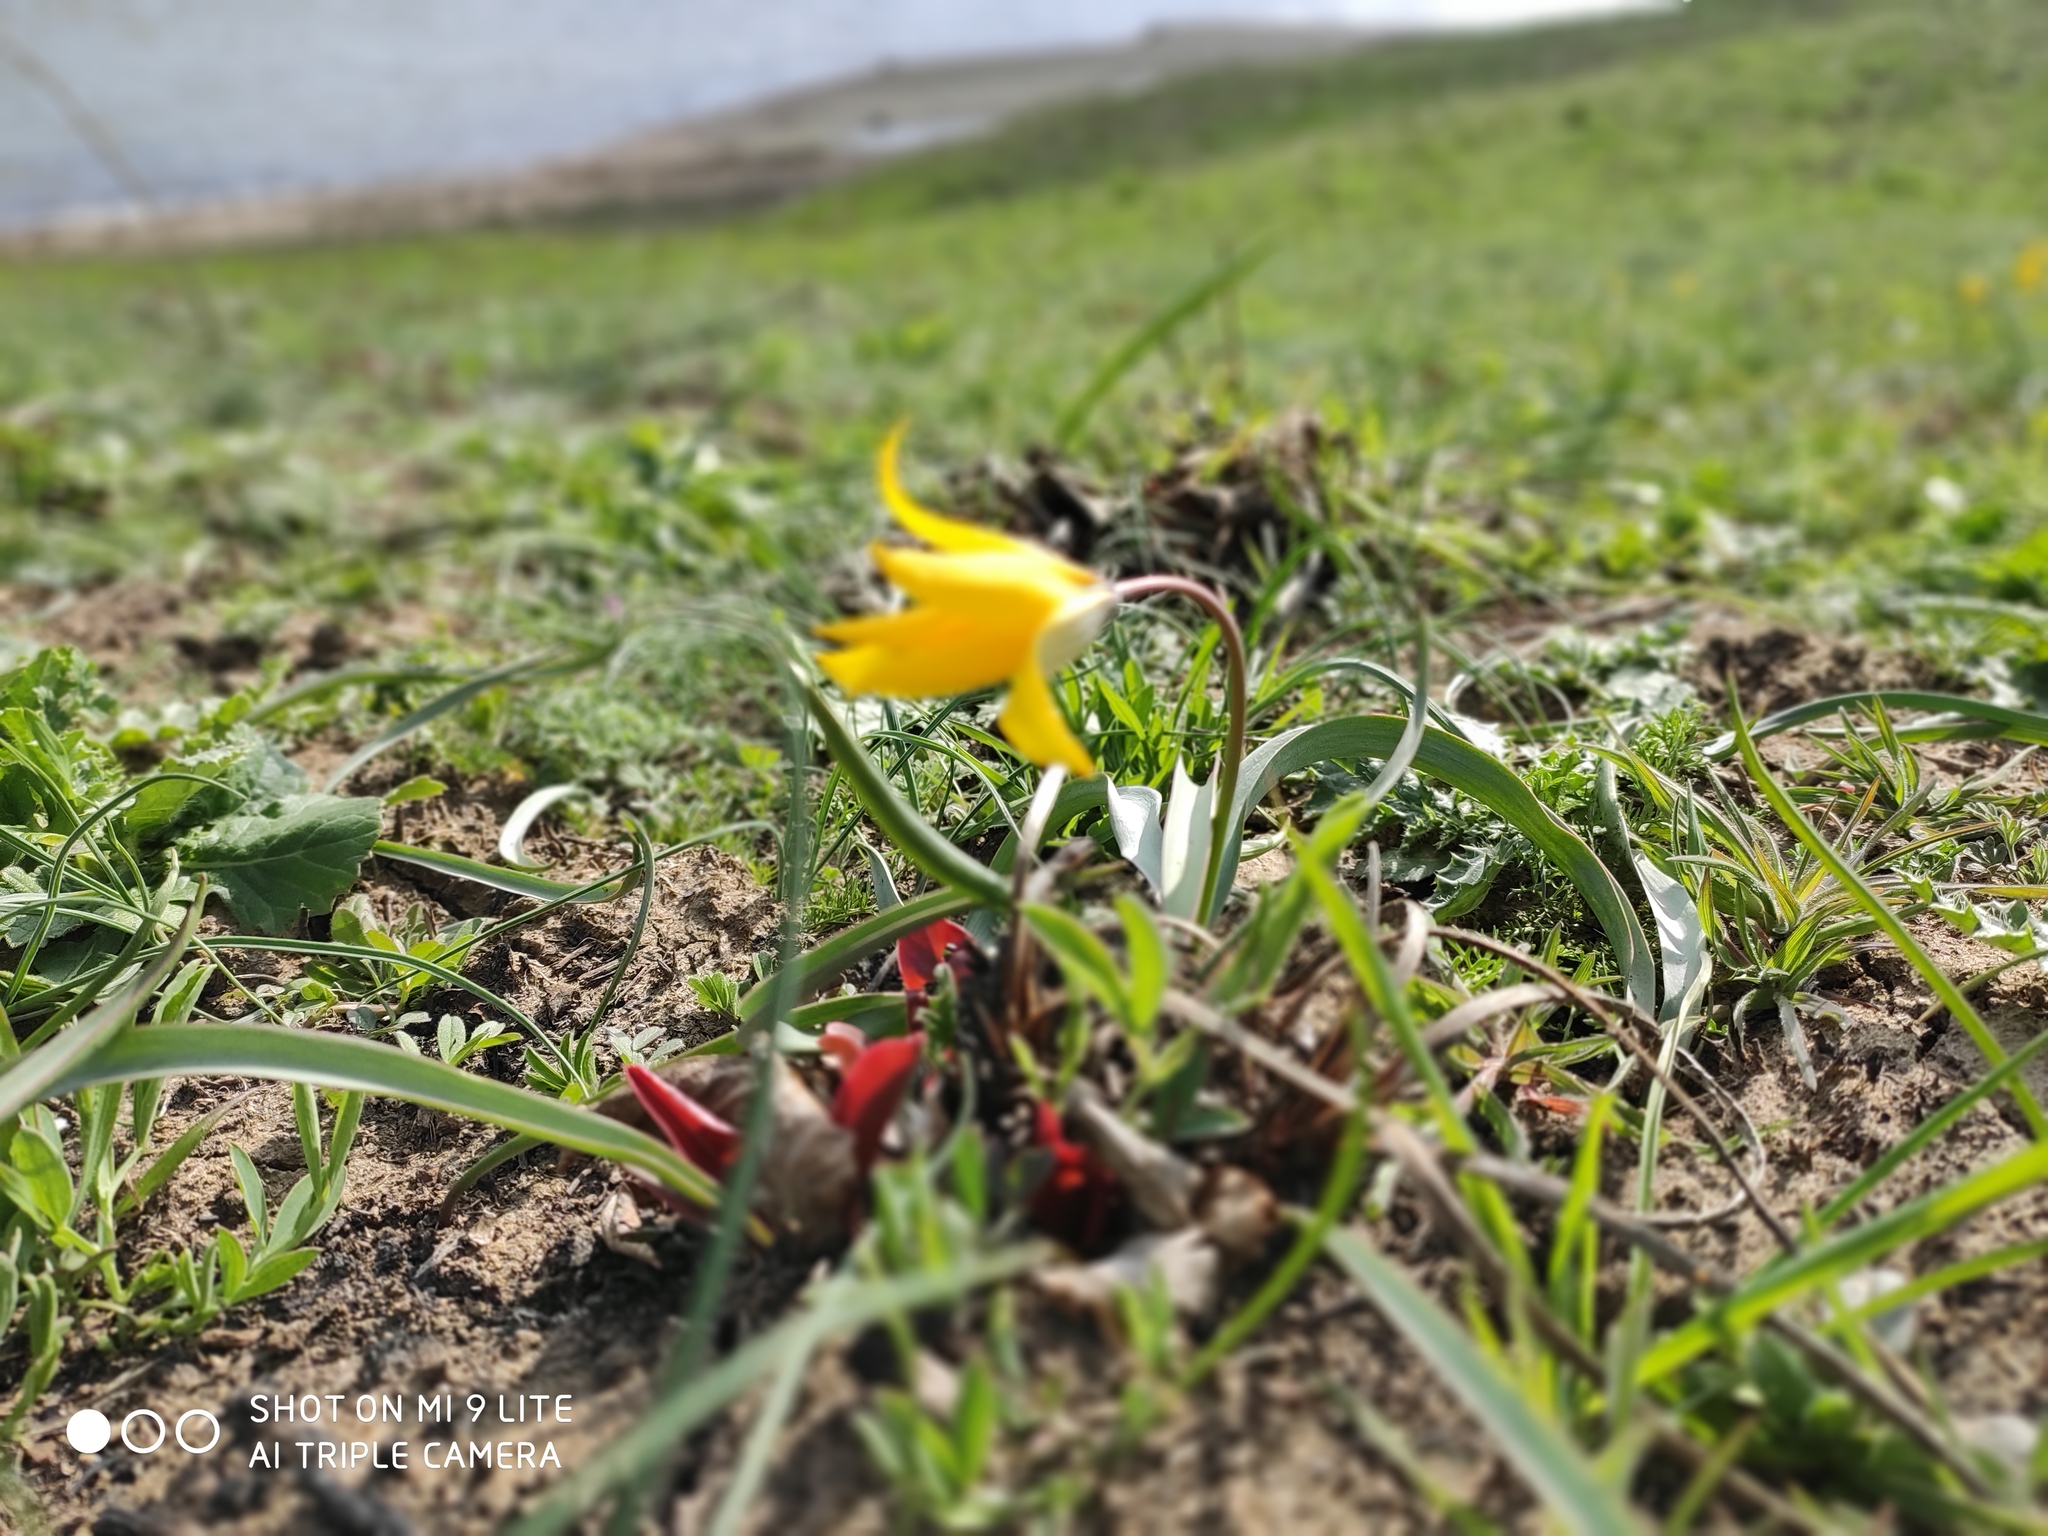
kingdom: Plantae
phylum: Tracheophyta
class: Liliopsida
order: Liliales
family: Liliaceae
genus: Tulipa
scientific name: Tulipa sylvestris
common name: Wild tulip
